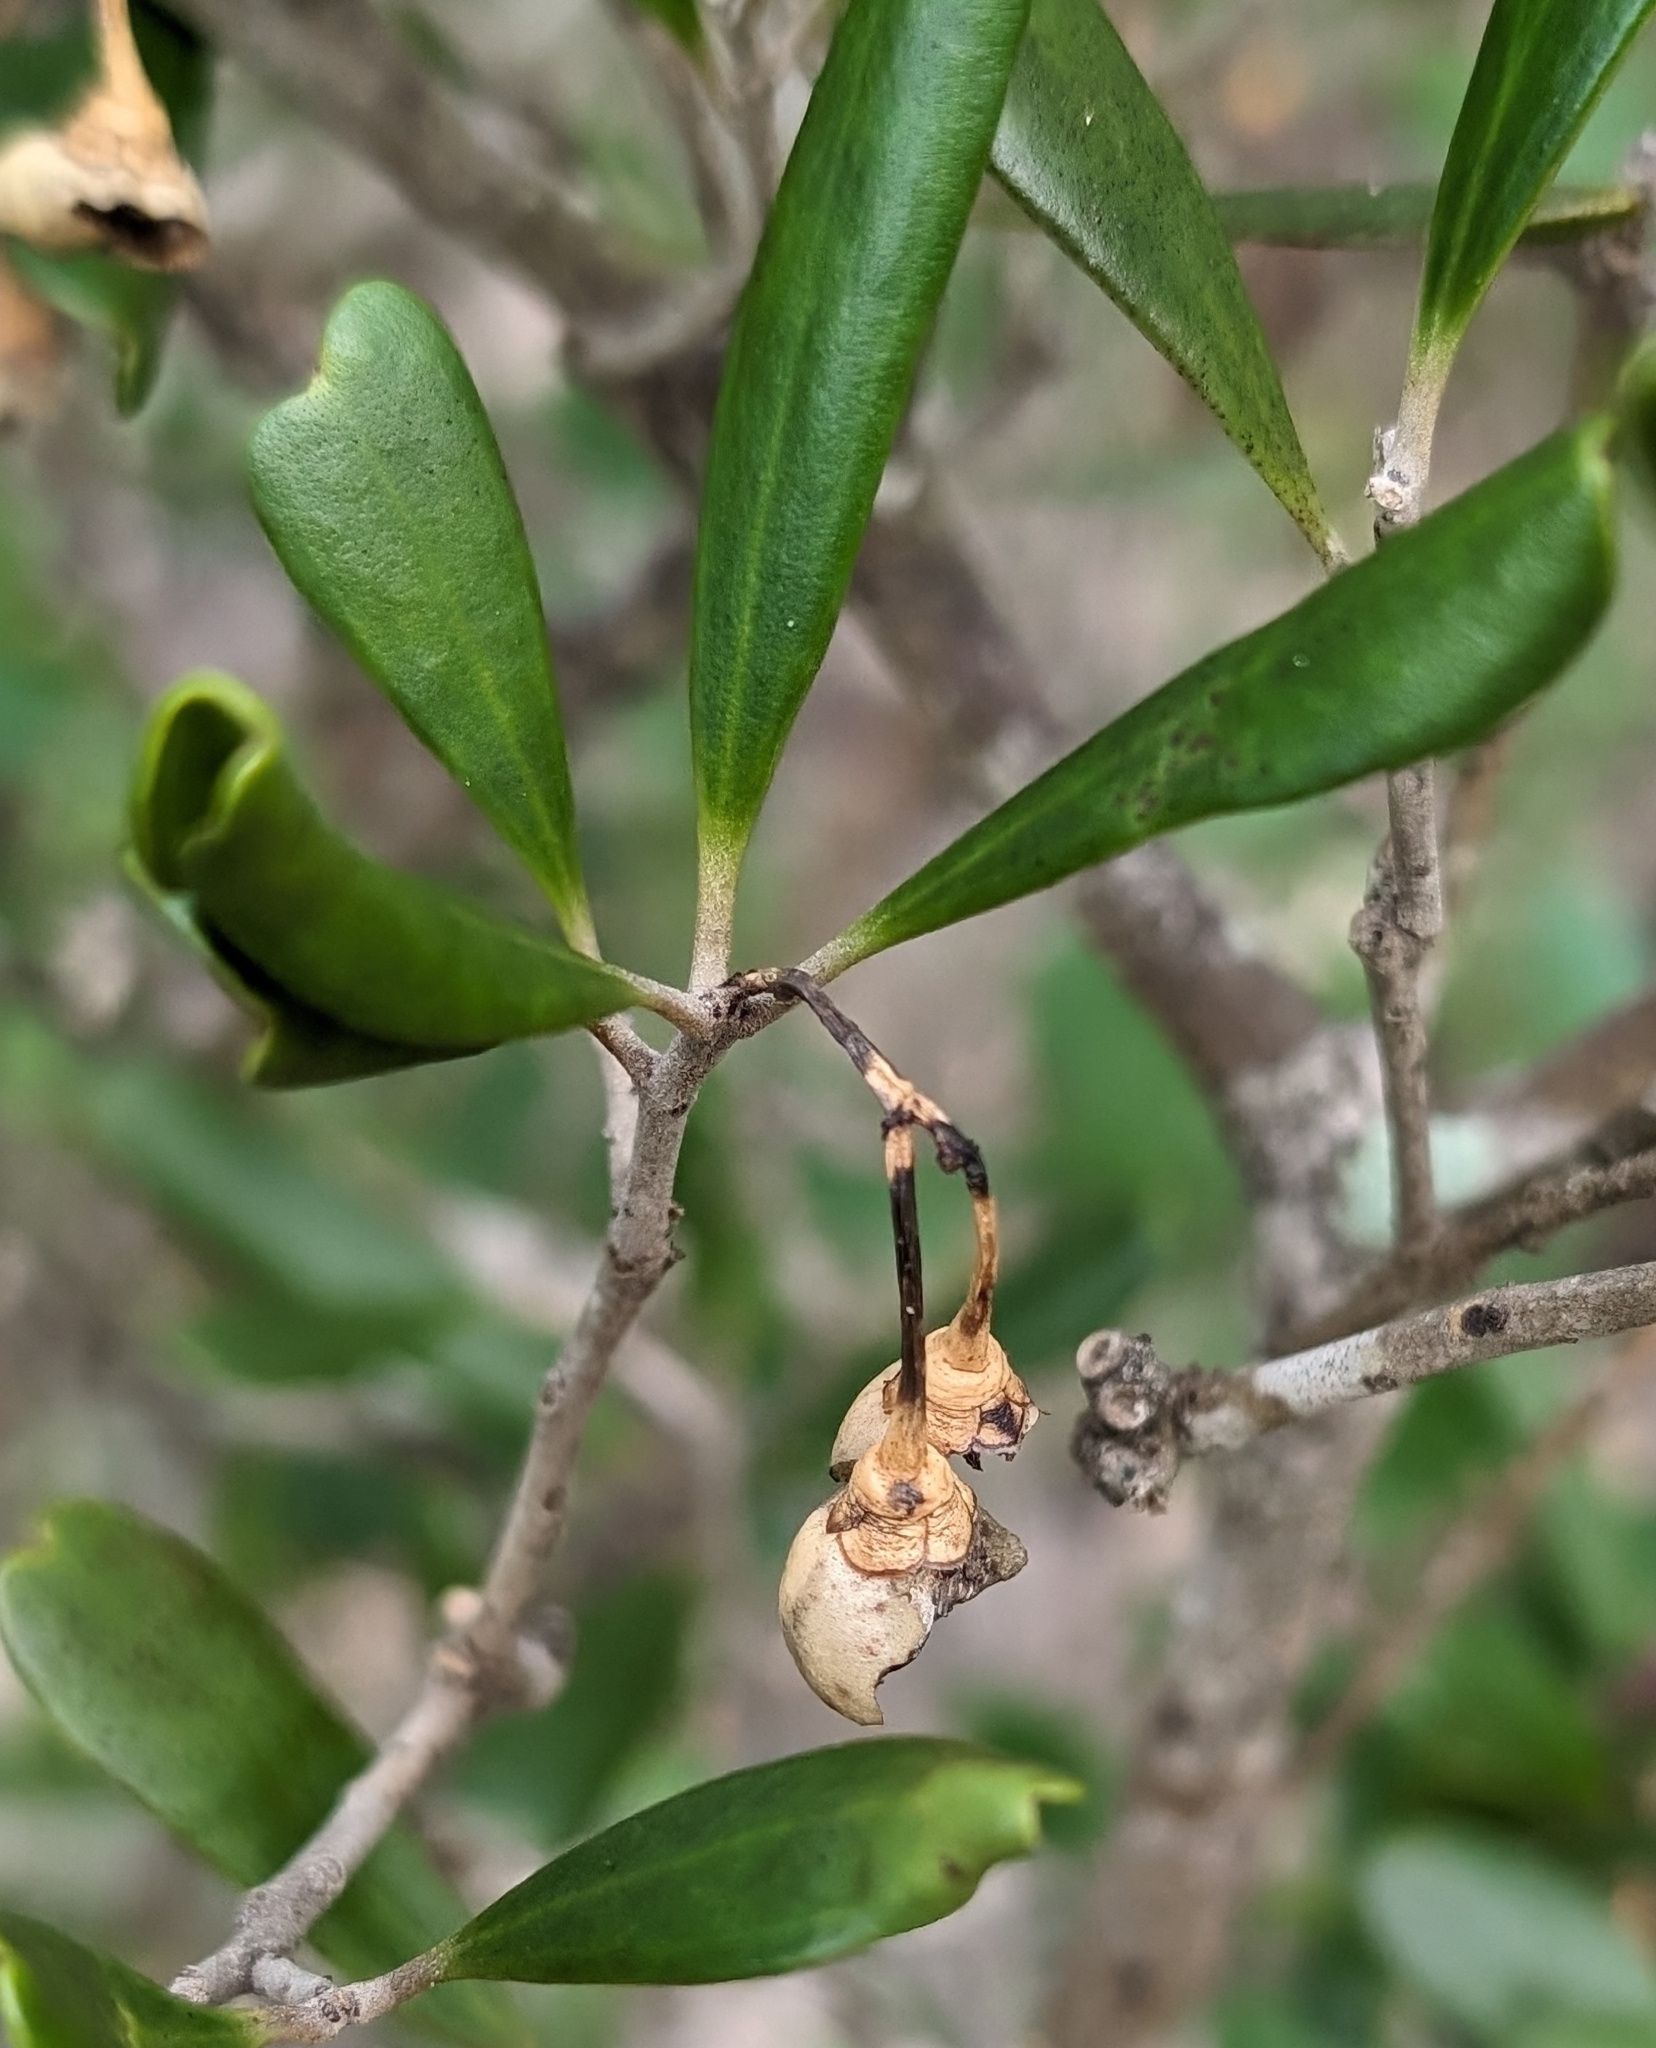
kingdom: Plantae
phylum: Tracheophyta
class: Magnoliopsida
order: Ericales
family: Primulaceae
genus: Jacquinia
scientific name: Jacquinia keyensis
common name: Joebush
